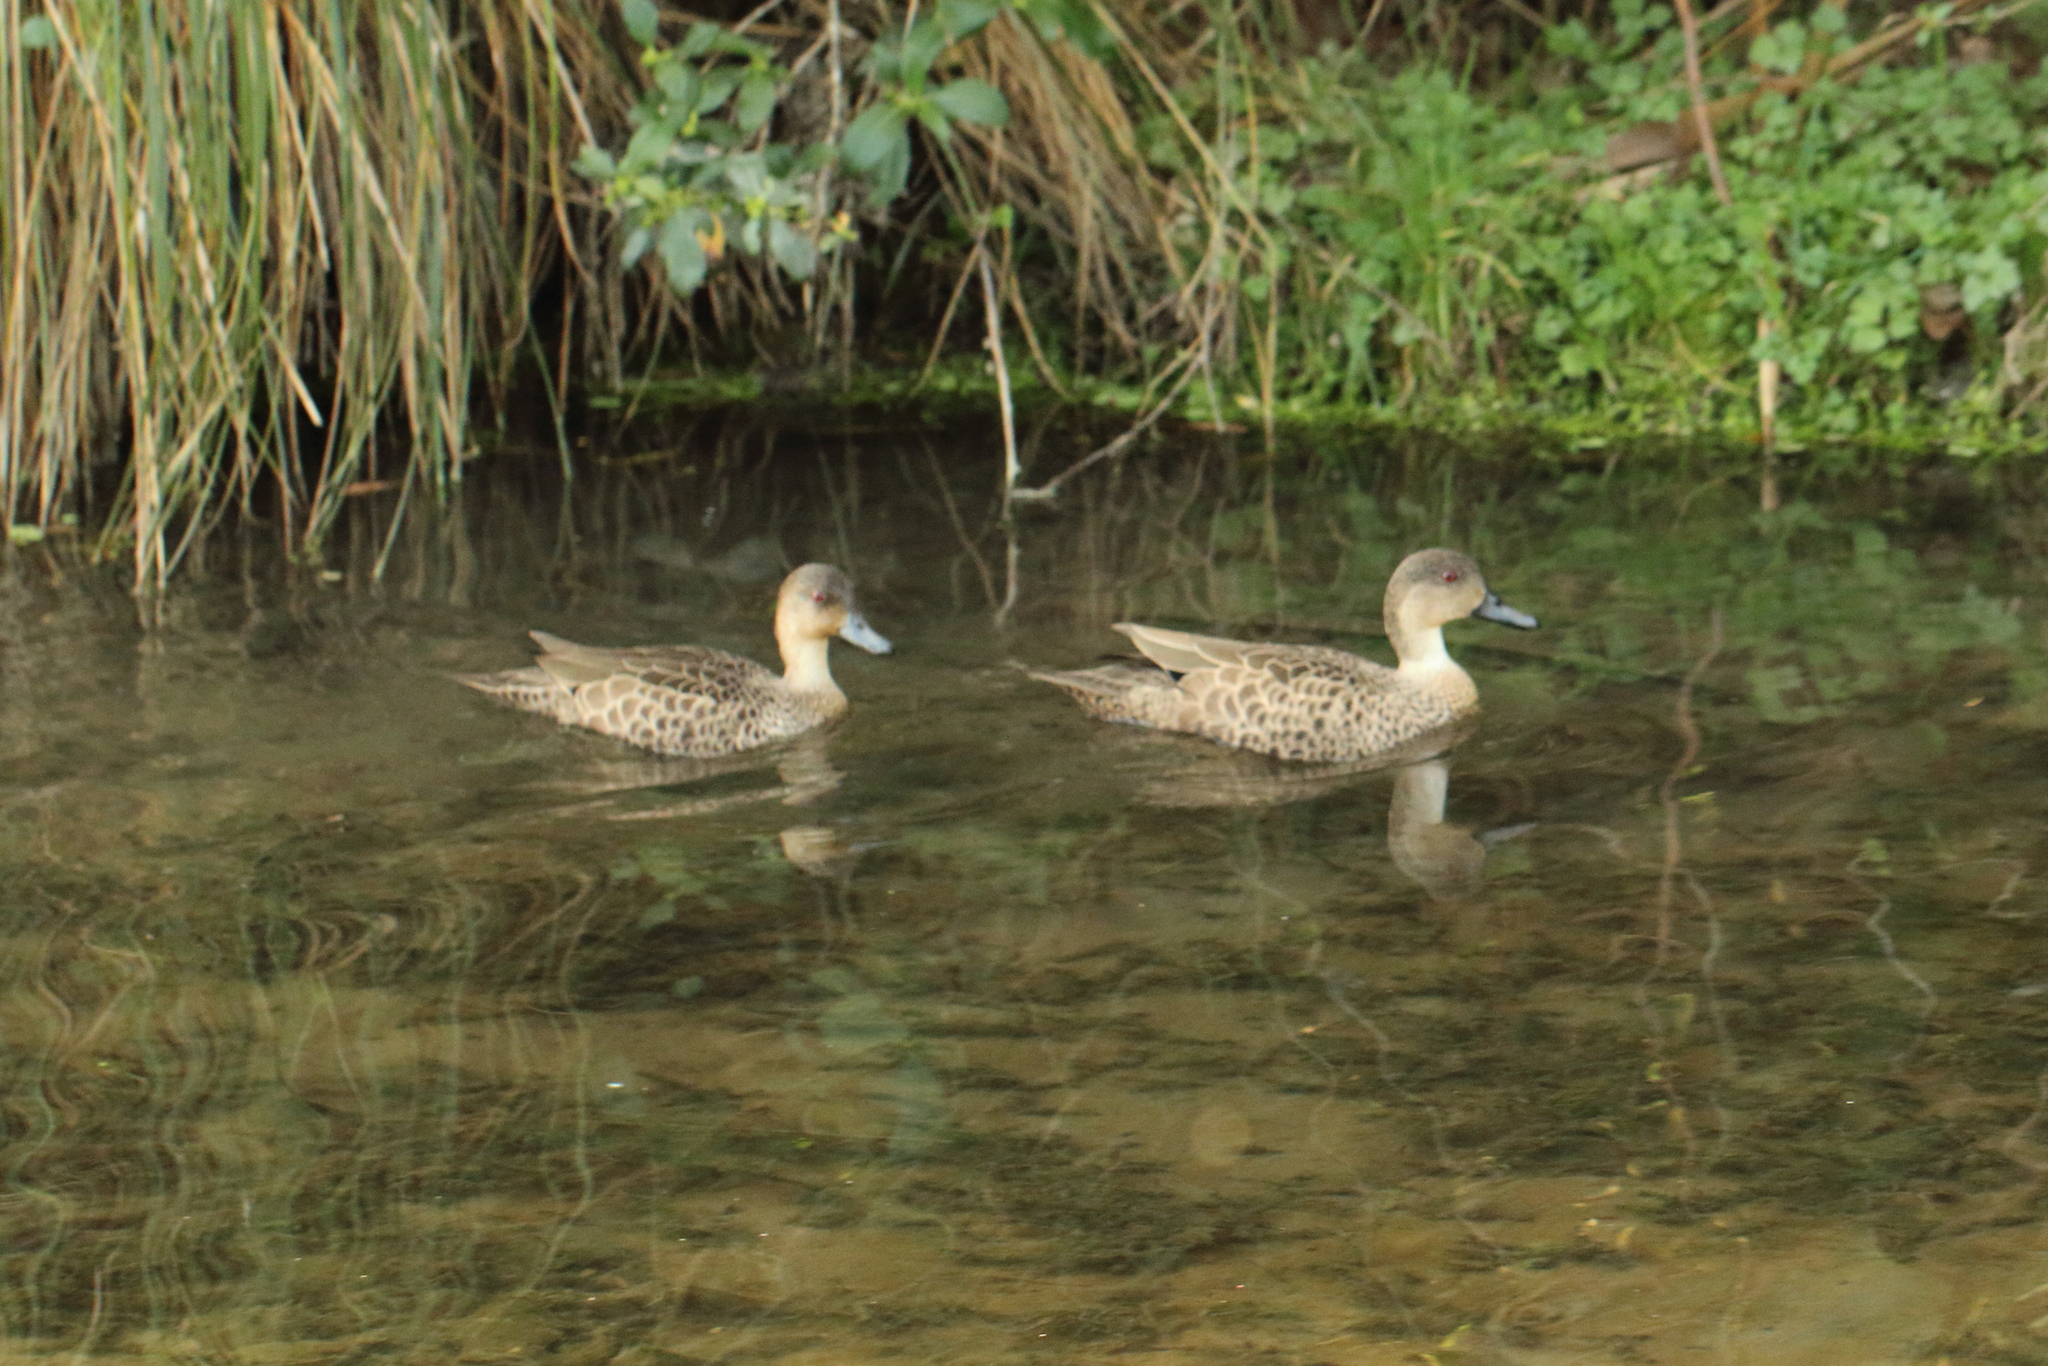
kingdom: Animalia
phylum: Chordata
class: Aves
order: Anseriformes
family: Anatidae
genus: Anas
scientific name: Anas gracilis
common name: Grey teal
